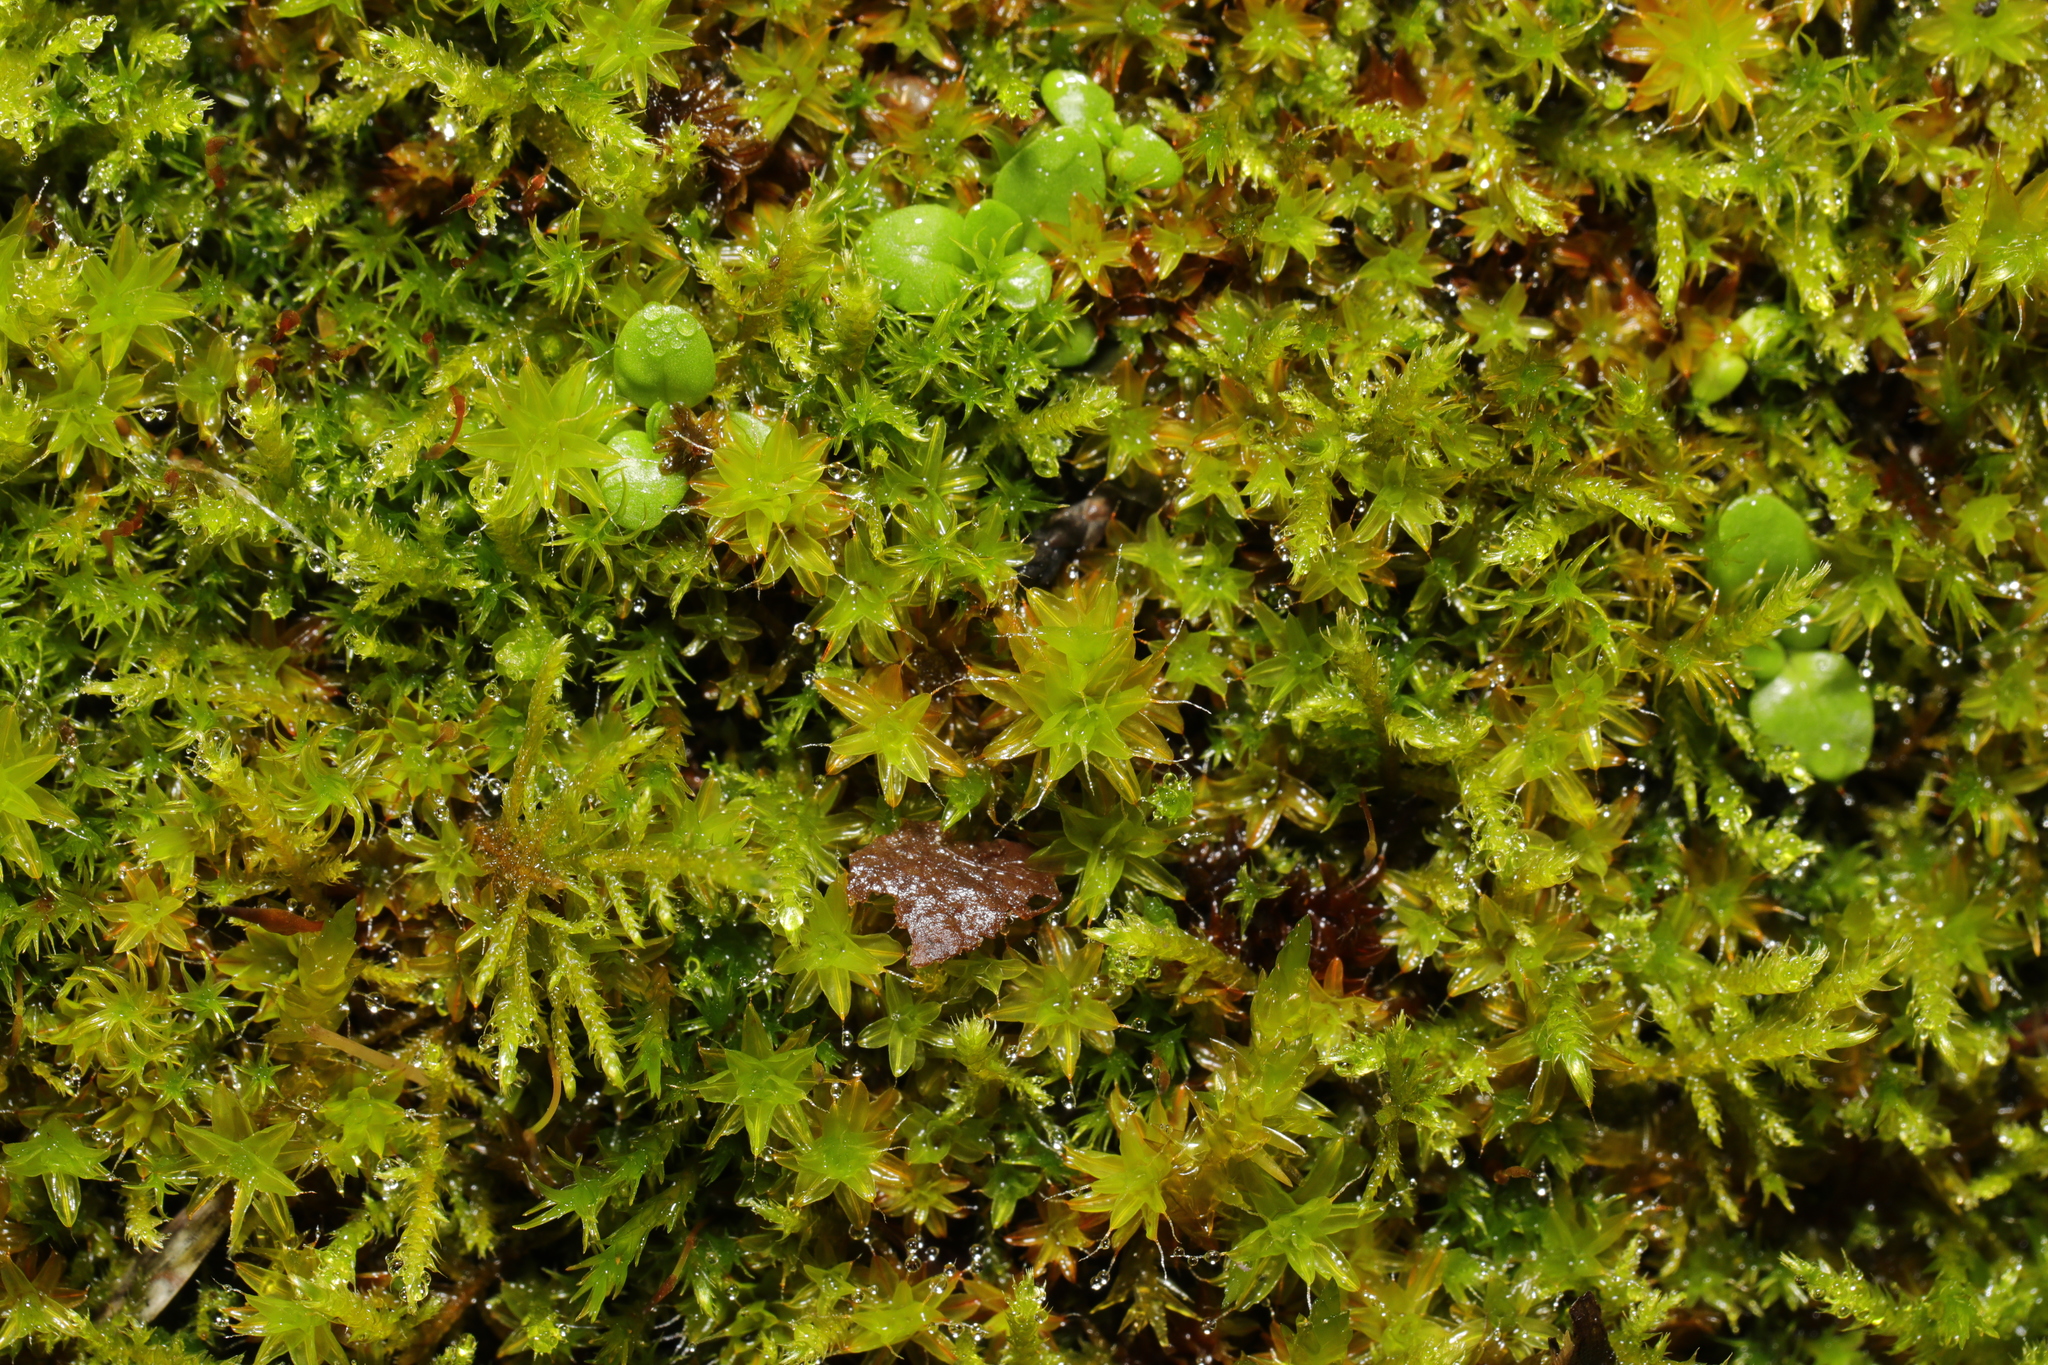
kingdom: Plantae
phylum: Bryophyta
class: Bryopsida
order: Pottiales
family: Pottiaceae
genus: Syntrichia
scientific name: Syntrichia ruralis
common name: Sidewalk screw moss
